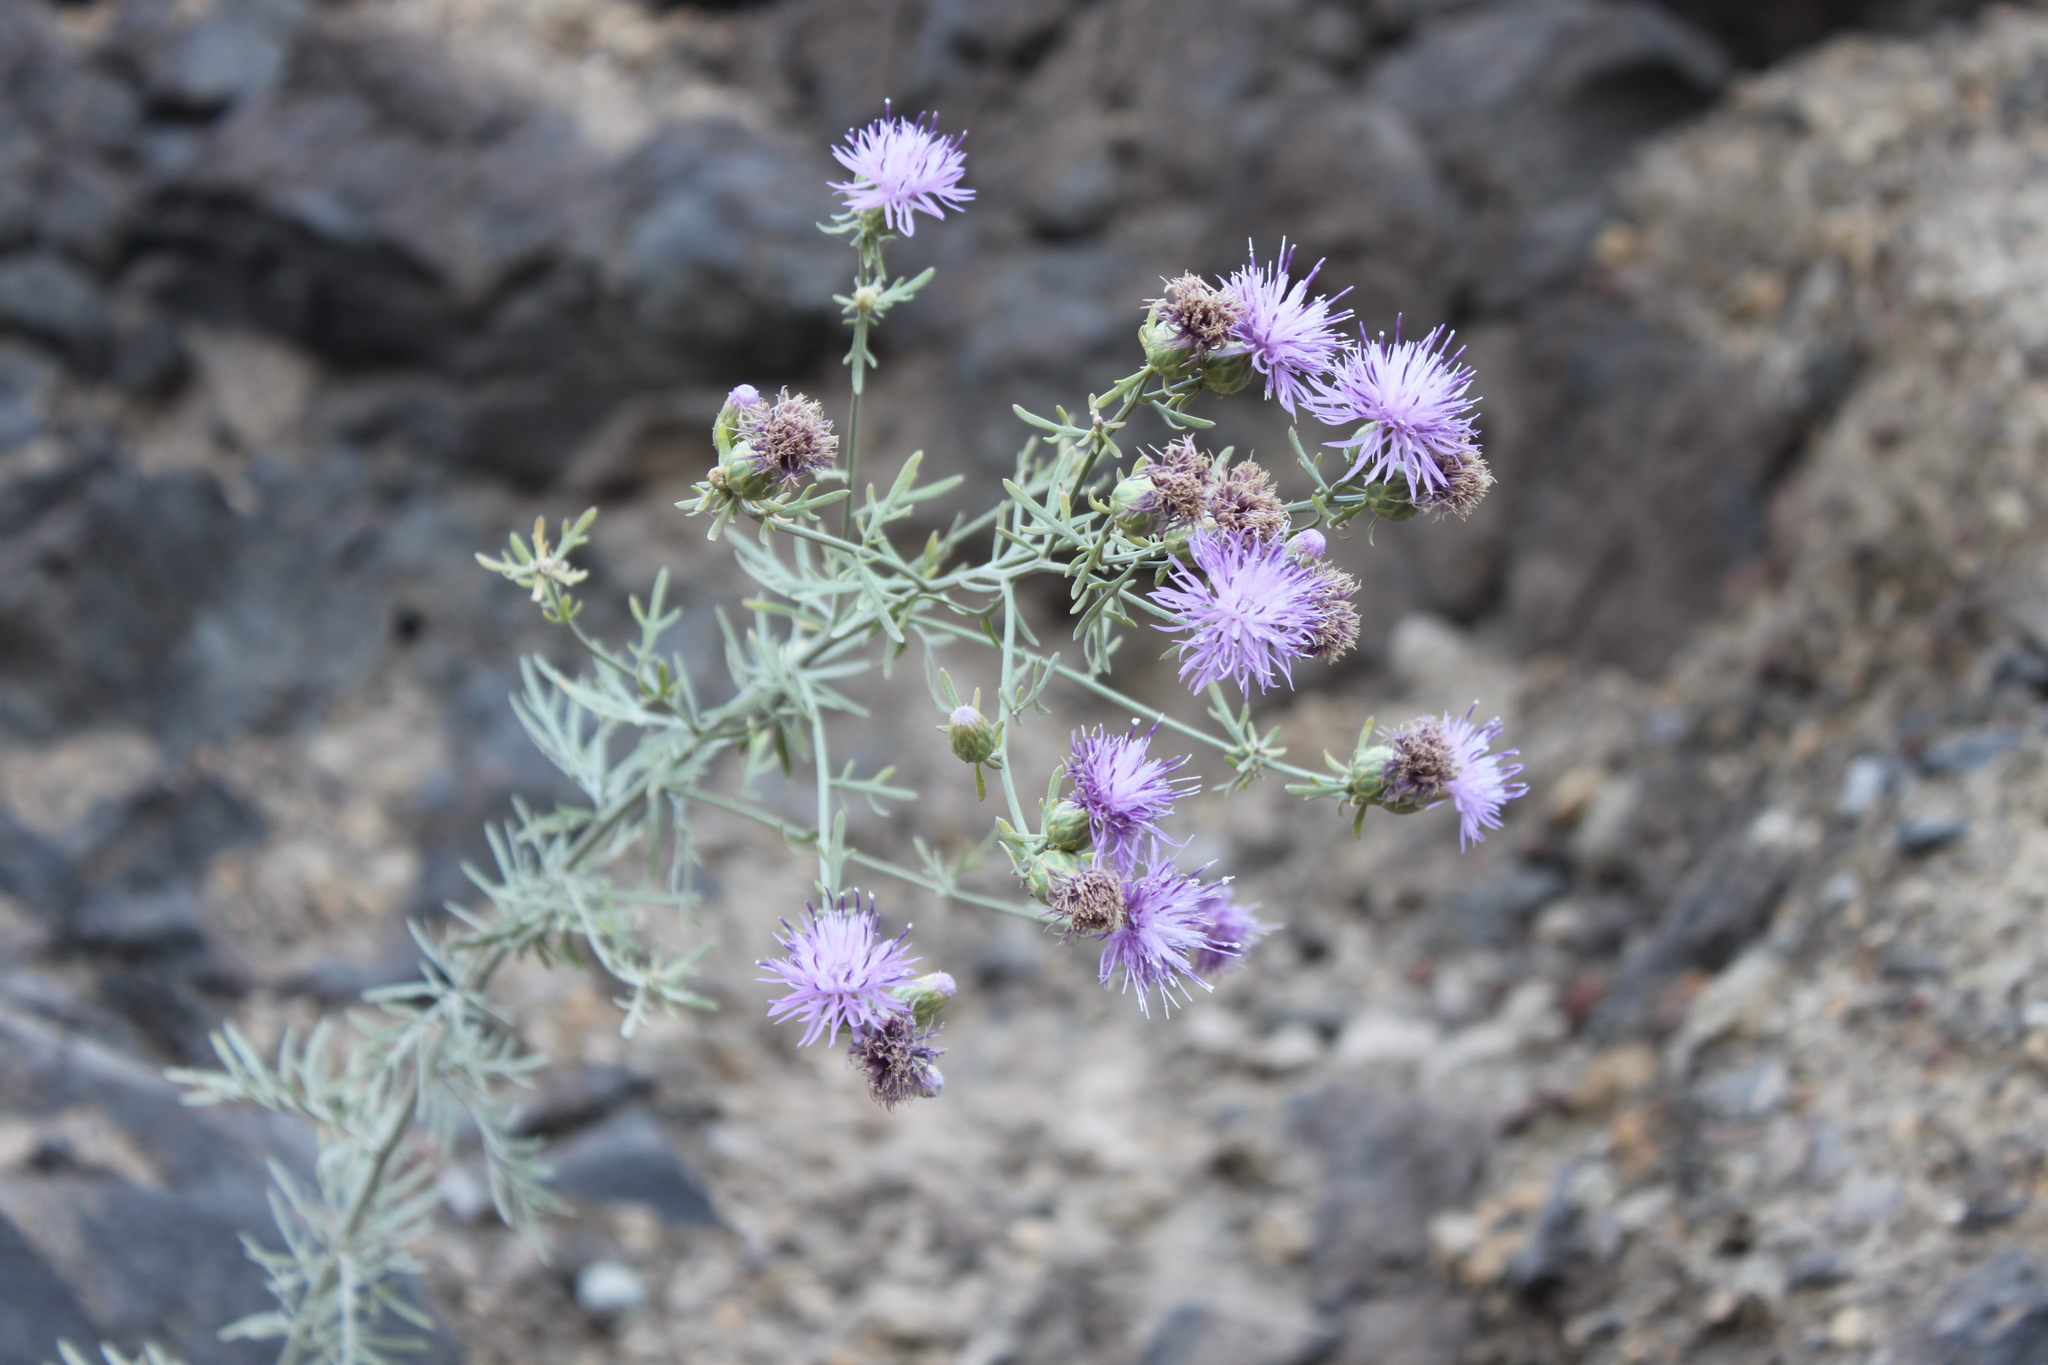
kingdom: Plantae
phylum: Tracheophyta
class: Magnoliopsida
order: Asterales
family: Asteraceae
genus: Centaurea
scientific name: Centaurea aeolica
